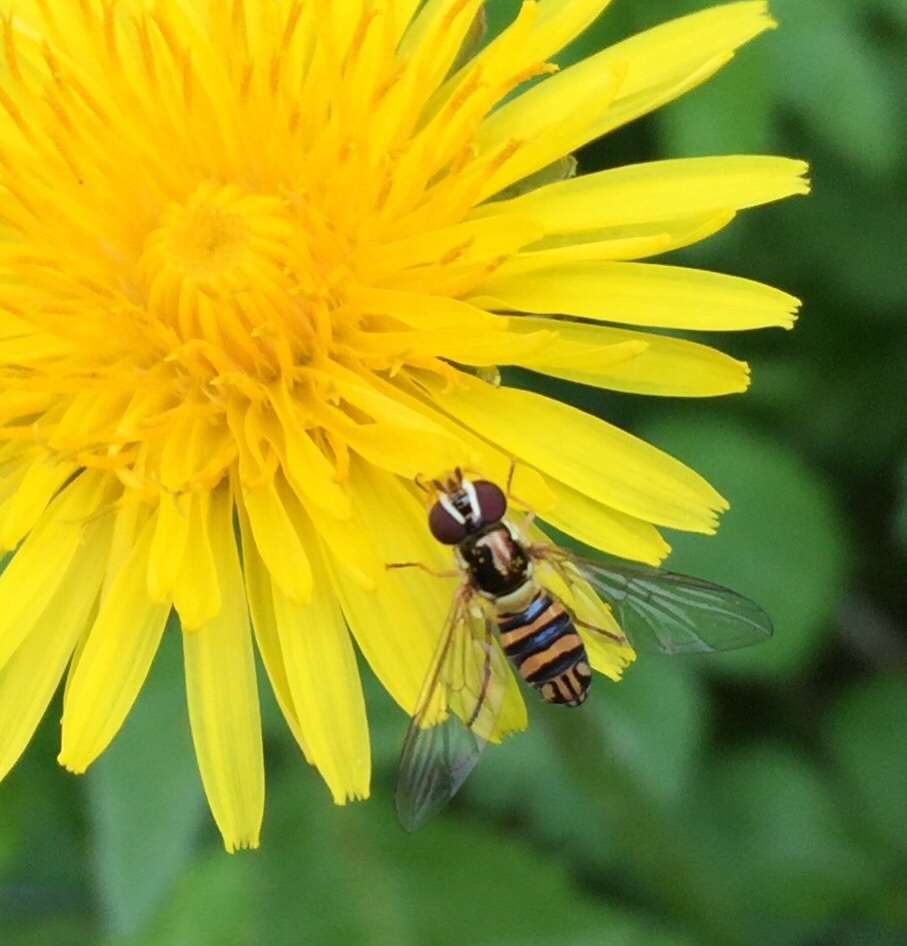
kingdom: Animalia
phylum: Arthropoda
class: Insecta
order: Diptera
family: Syrphidae
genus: Allograpta
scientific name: Allograpta obliqua
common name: Common oblique syrphid
